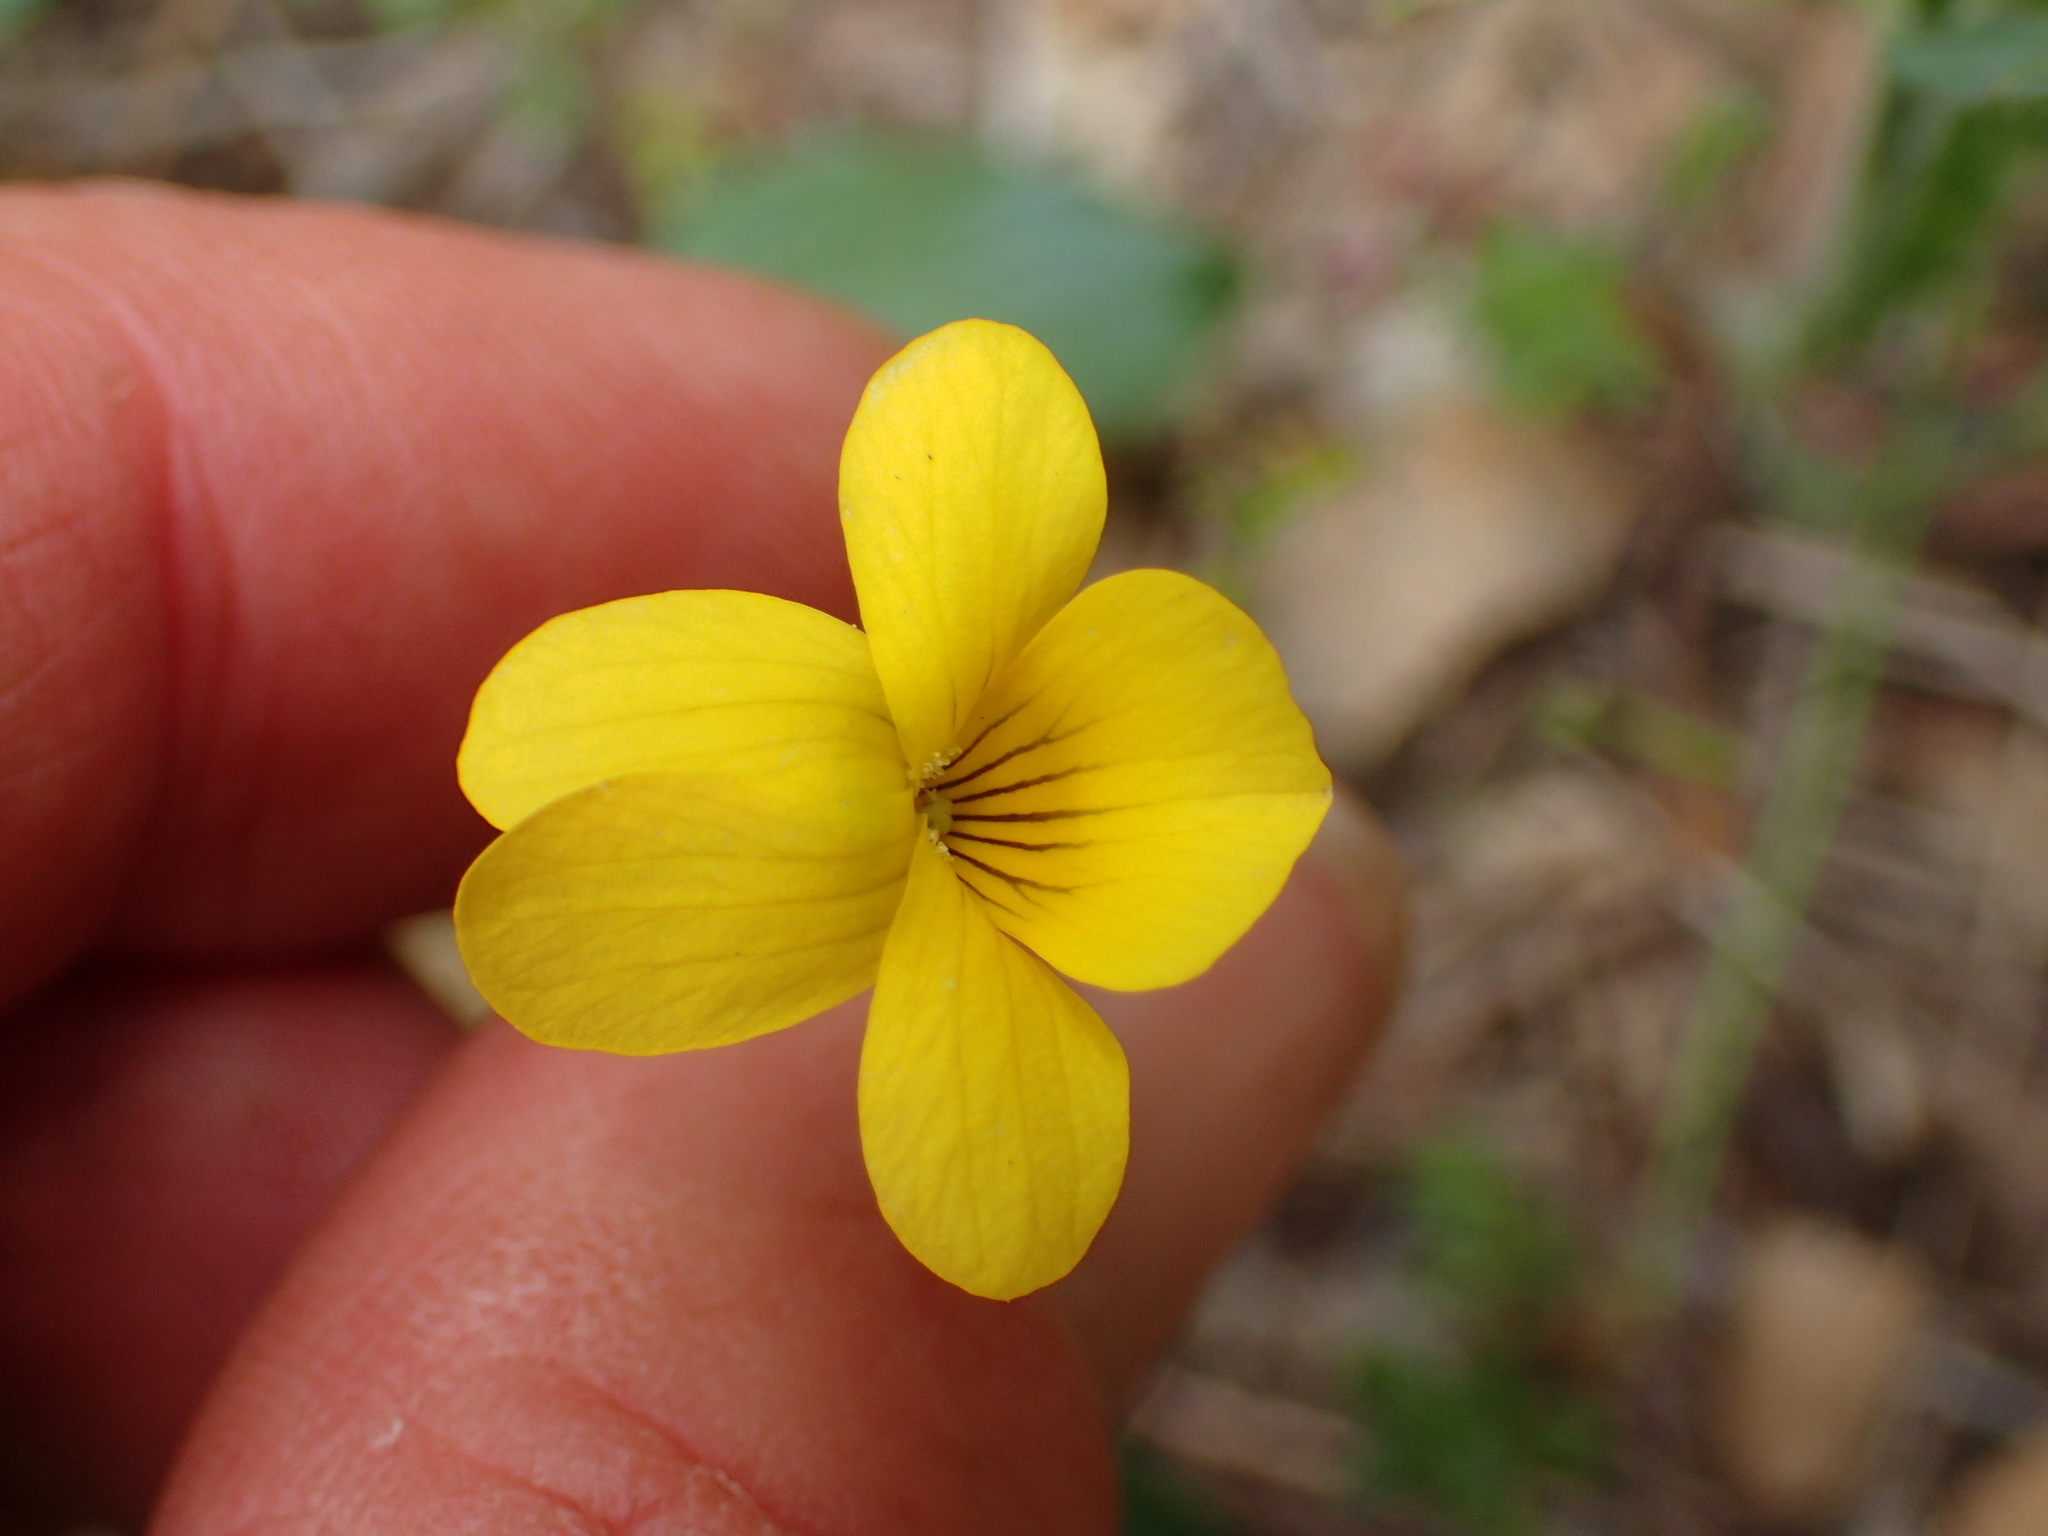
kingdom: Plantae
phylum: Tracheophyta
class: Magnoliopsida
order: Malpighiales
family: Violaceae
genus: Viola
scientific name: Viola purpurea
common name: Pine violet
